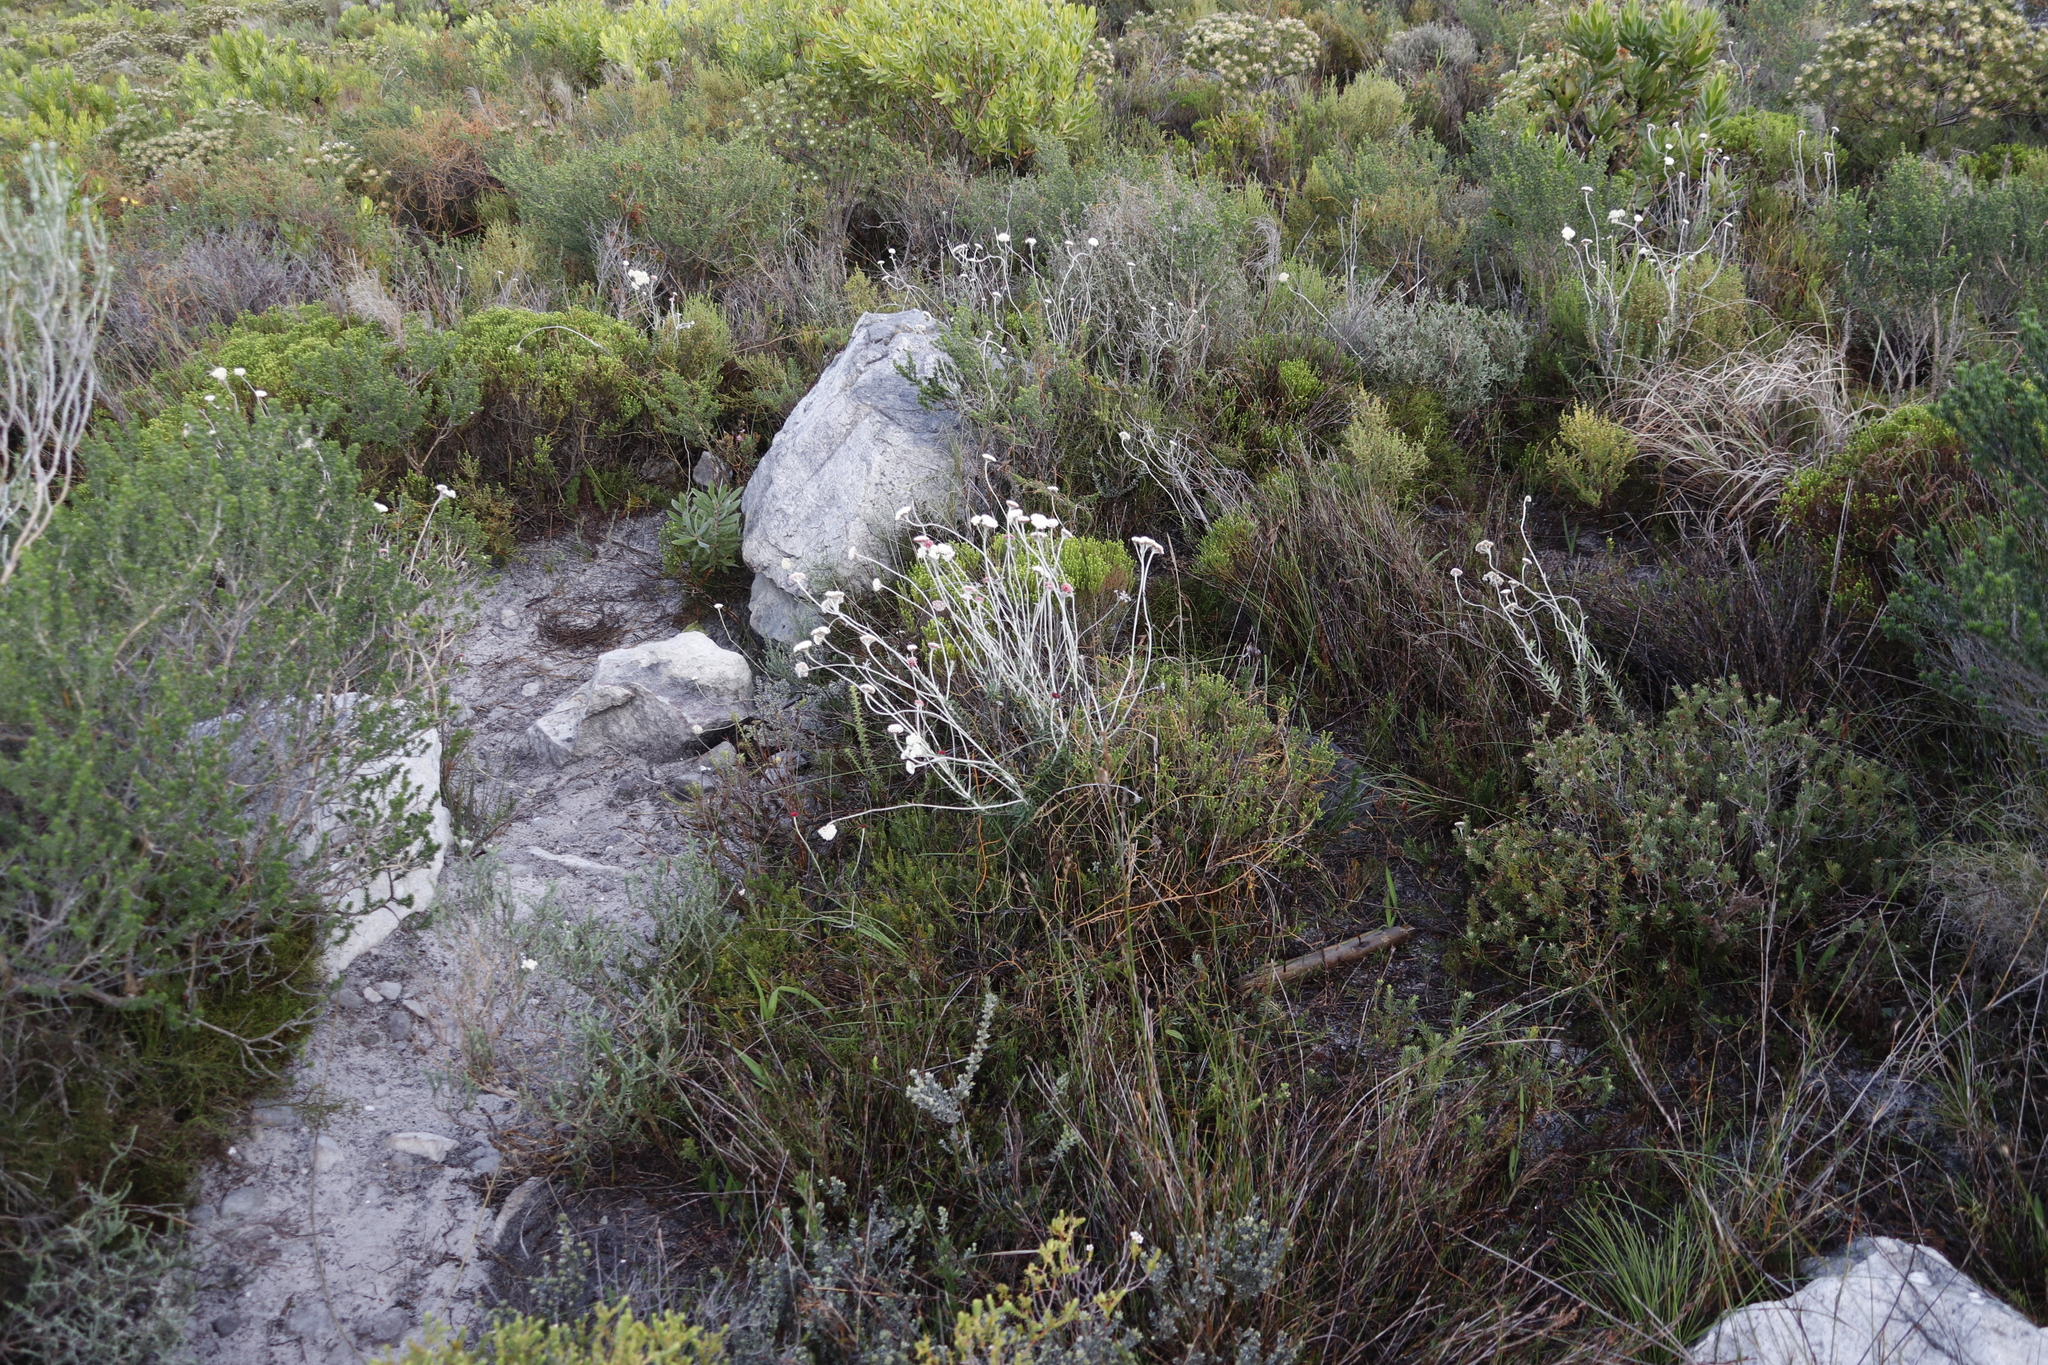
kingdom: Plantae
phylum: Tracheophyta
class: Magnoliopsida
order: Asterales
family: Asteraceae
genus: Anaxeton
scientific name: Anaxeton laeve
